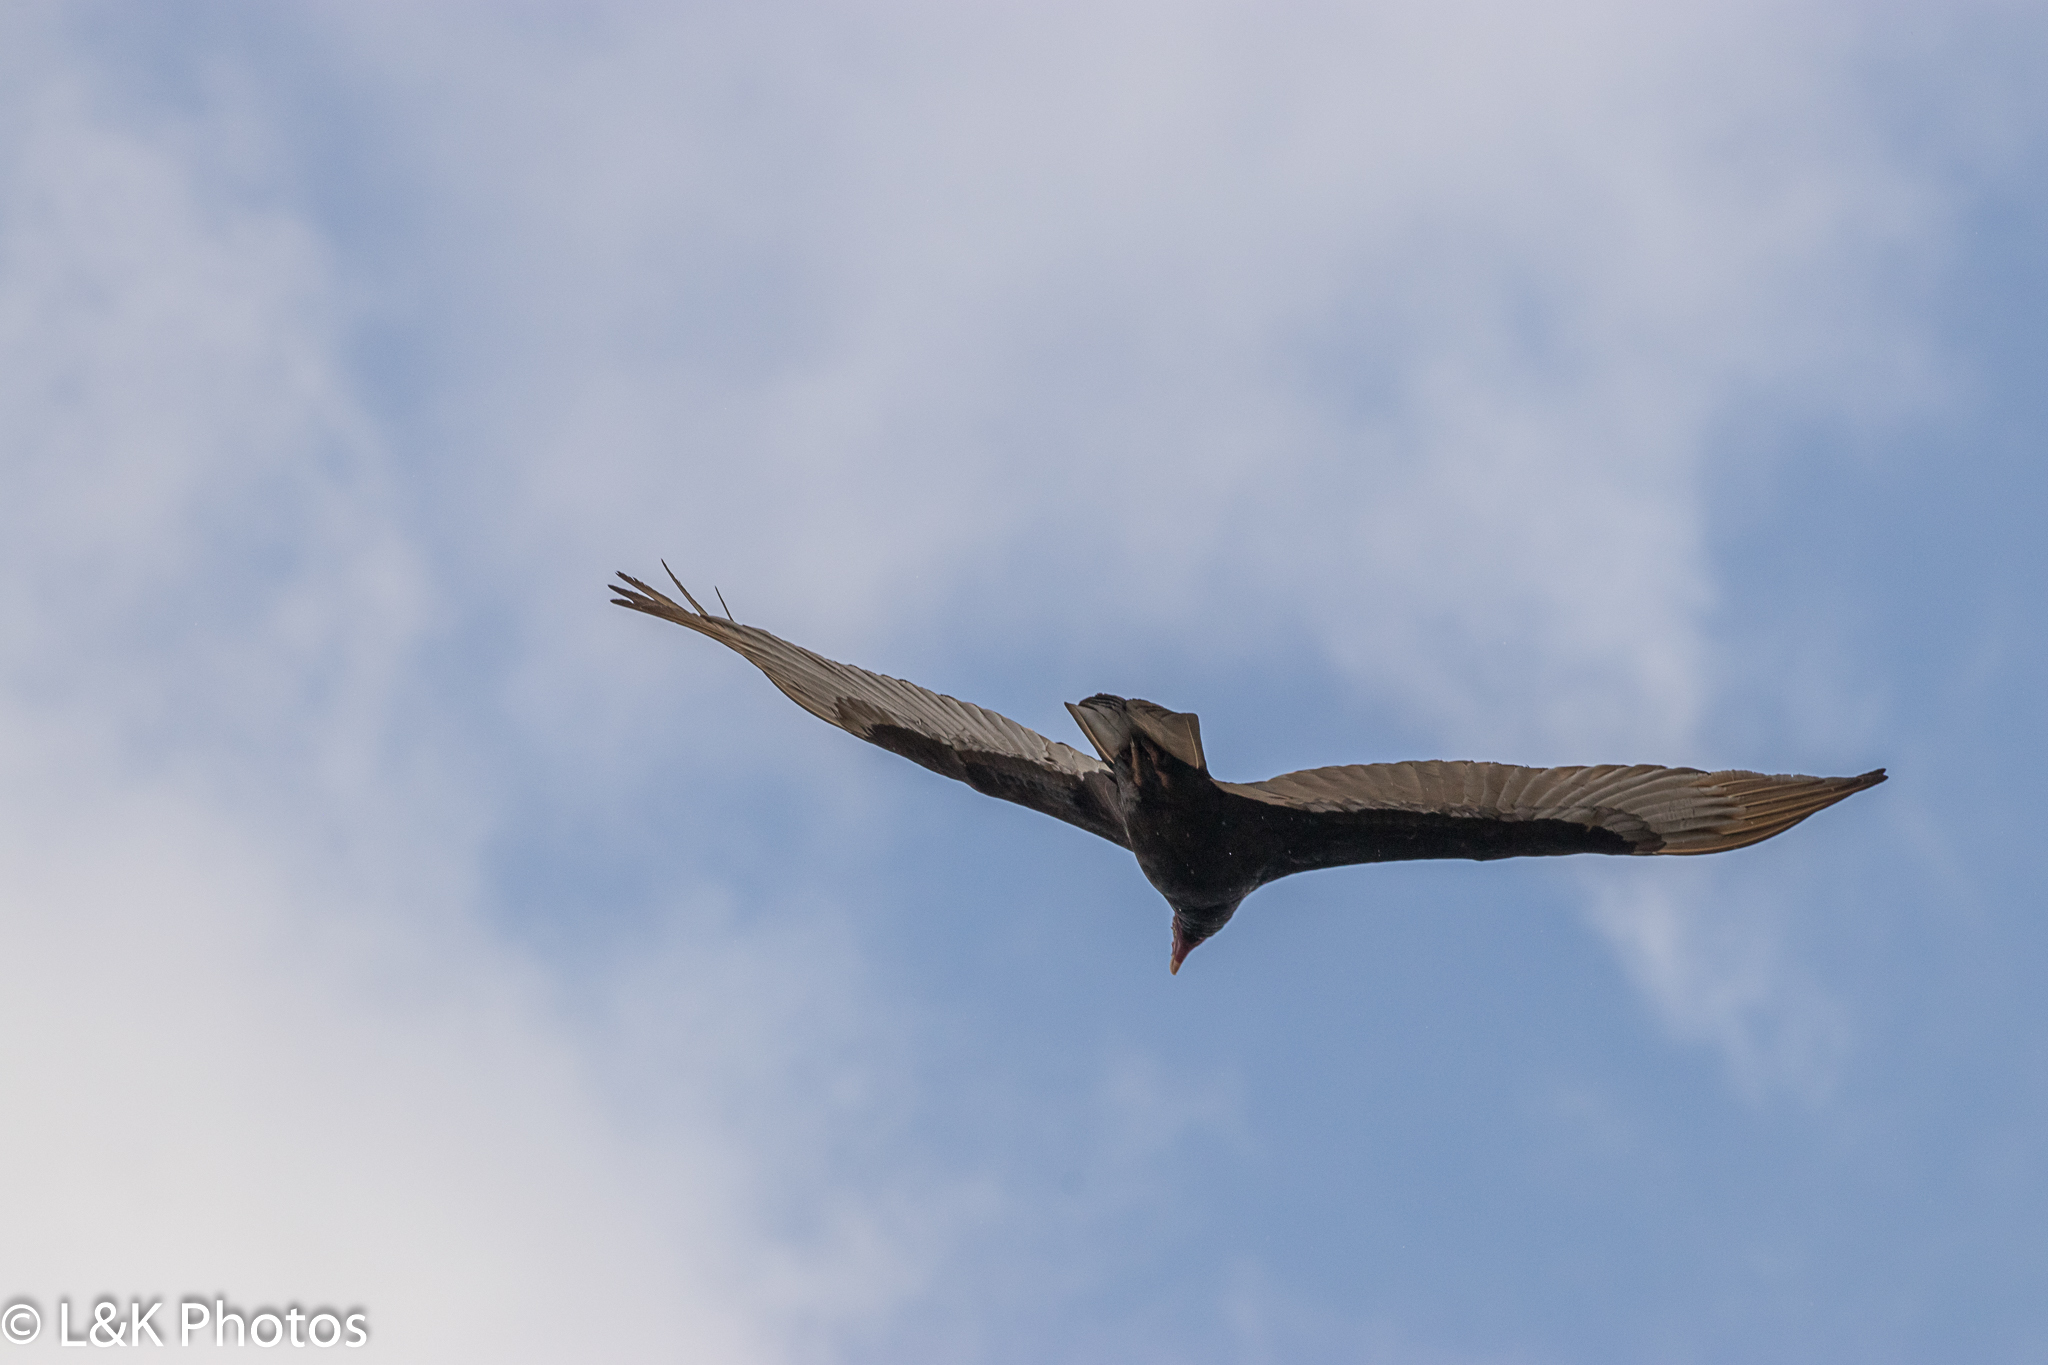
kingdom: Animalia
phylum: Chordata
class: Aves
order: Accipitriformes
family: Cathartidae
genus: Cathartes
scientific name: Cathartes aura
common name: Turkey vulture
